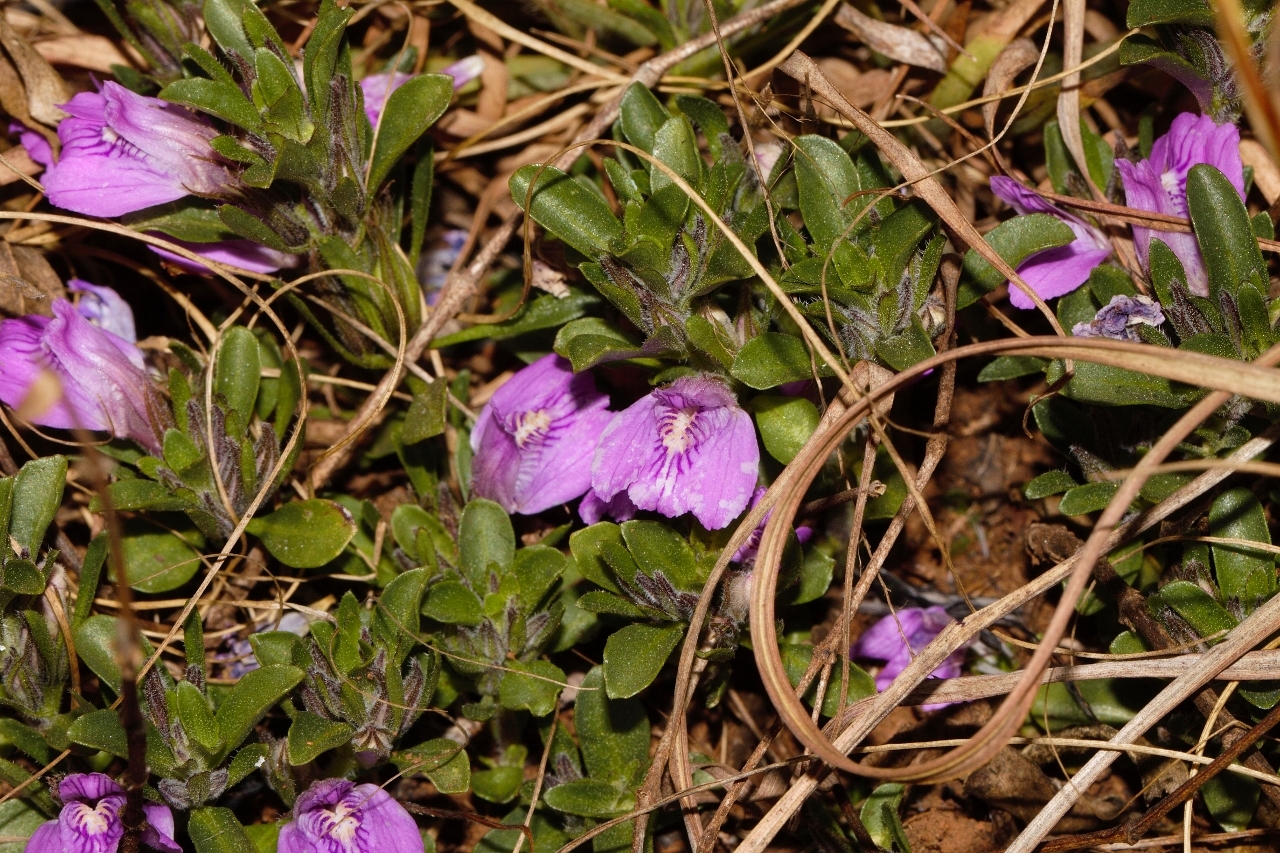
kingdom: Plantae
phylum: Tracheophyta
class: Magnoliopsida
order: Lamiales
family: Acanthaceae
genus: Justicia
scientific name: Justicia elegantula
